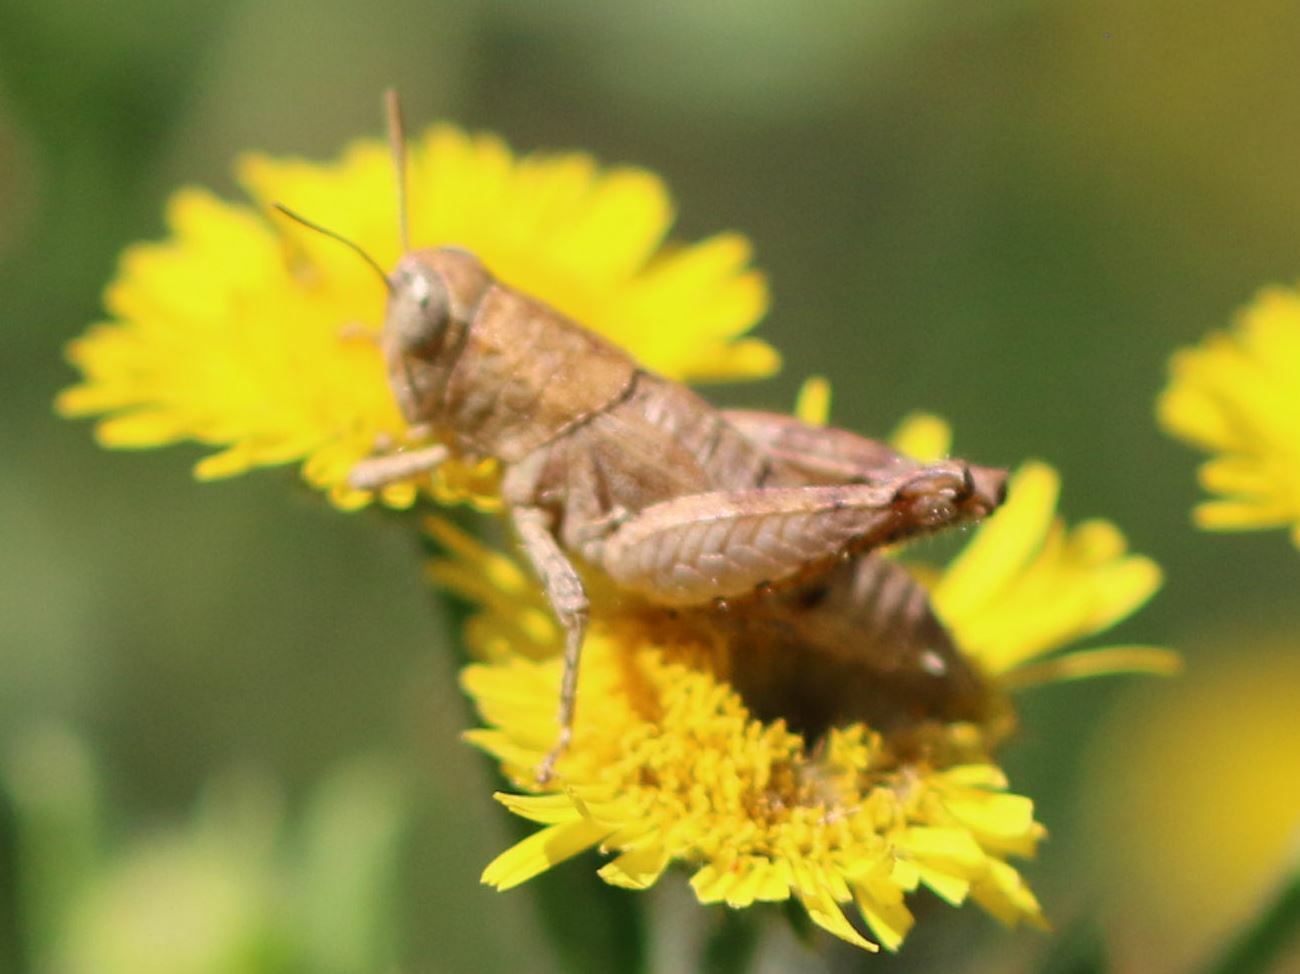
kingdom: Animalia
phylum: Arthropoda
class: Insecta
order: Orthoptera
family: Acrididae
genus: Pezotettix
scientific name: Pezotettix giornae
